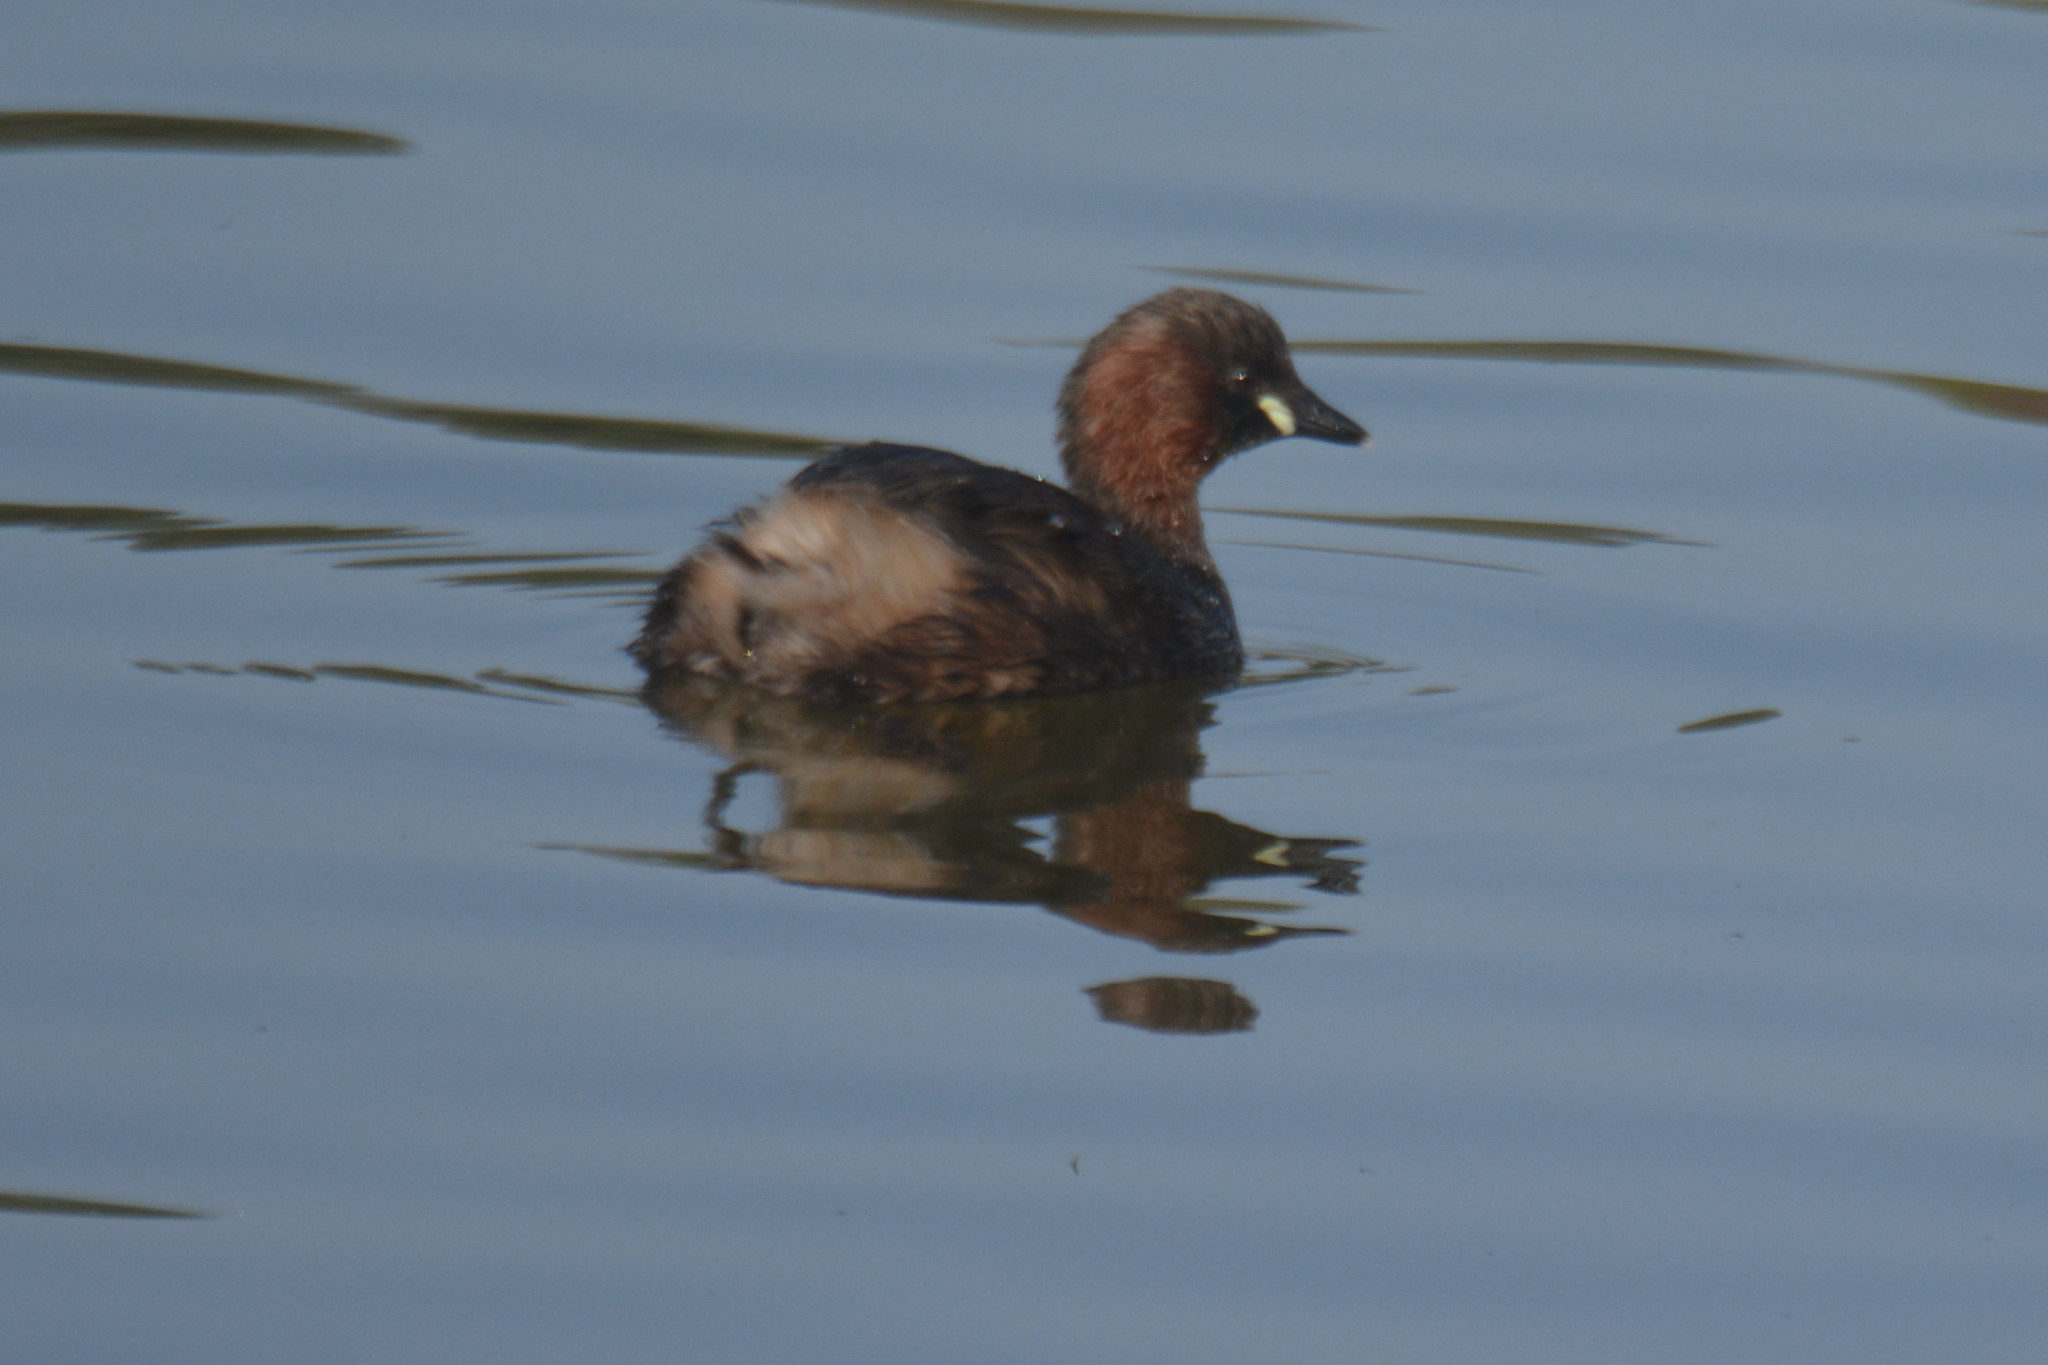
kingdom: Animalia
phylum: Chordata
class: Aves
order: Podicipediformes
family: Podicipedidae
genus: Tachybaptus
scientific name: Tachybaptus ruficollis
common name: Little grebe
